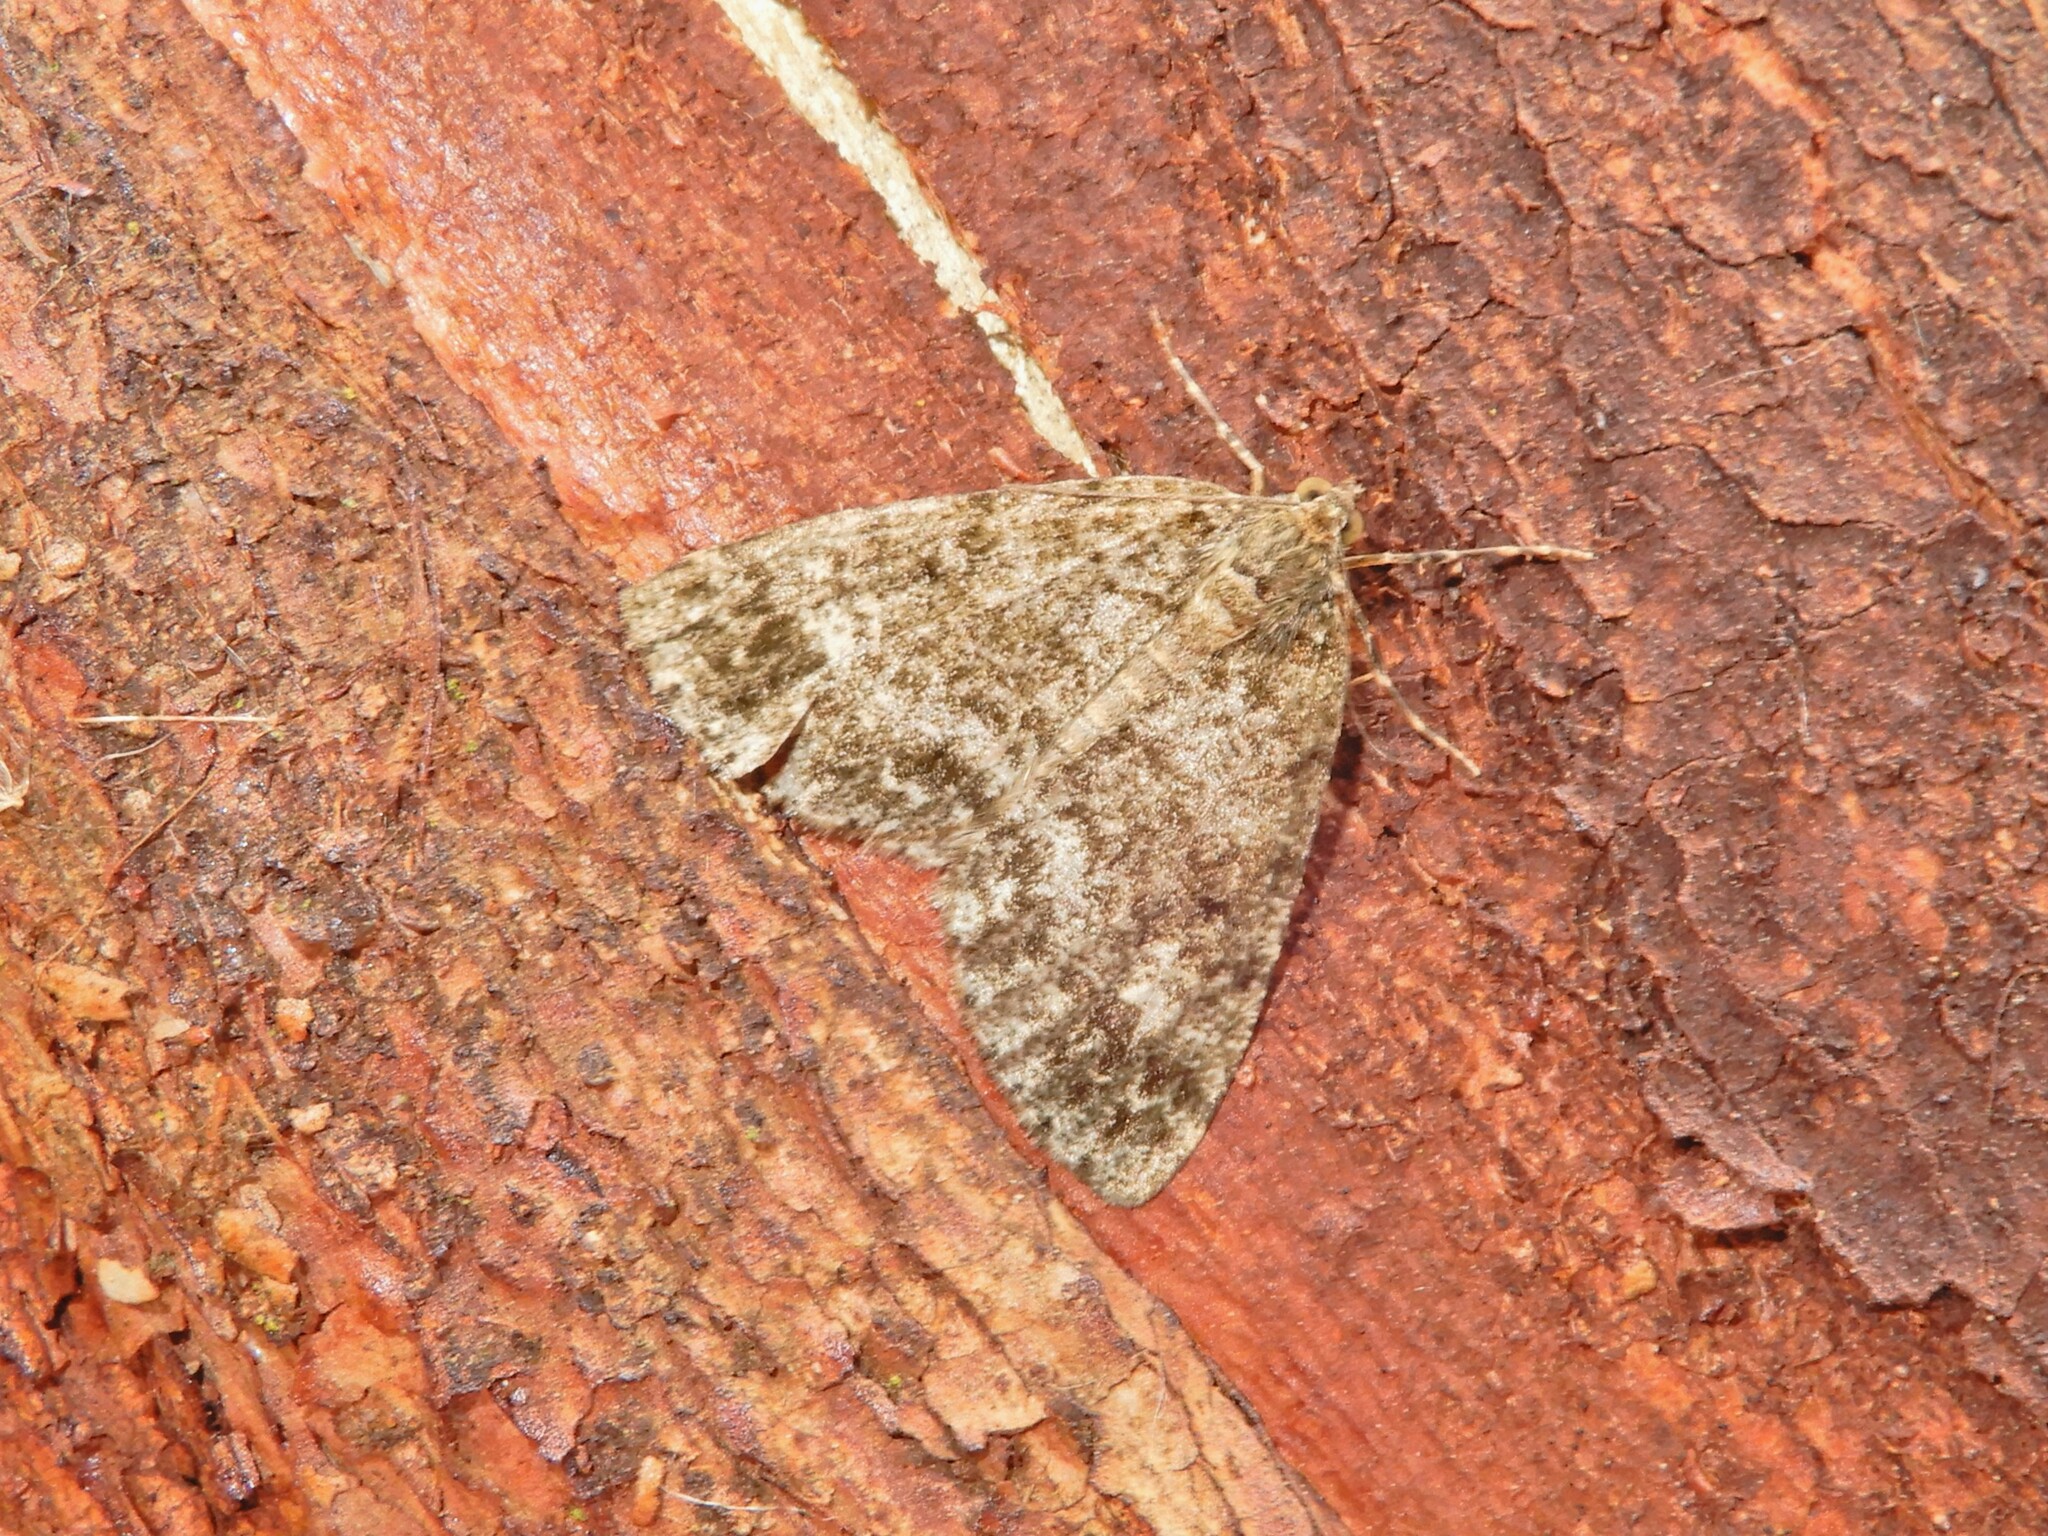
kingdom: Animalia
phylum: Arthropoda
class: Insecta
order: Lepidoptera
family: Geometridae
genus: Pseudocoremia
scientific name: Pseudocoremia indistincta
